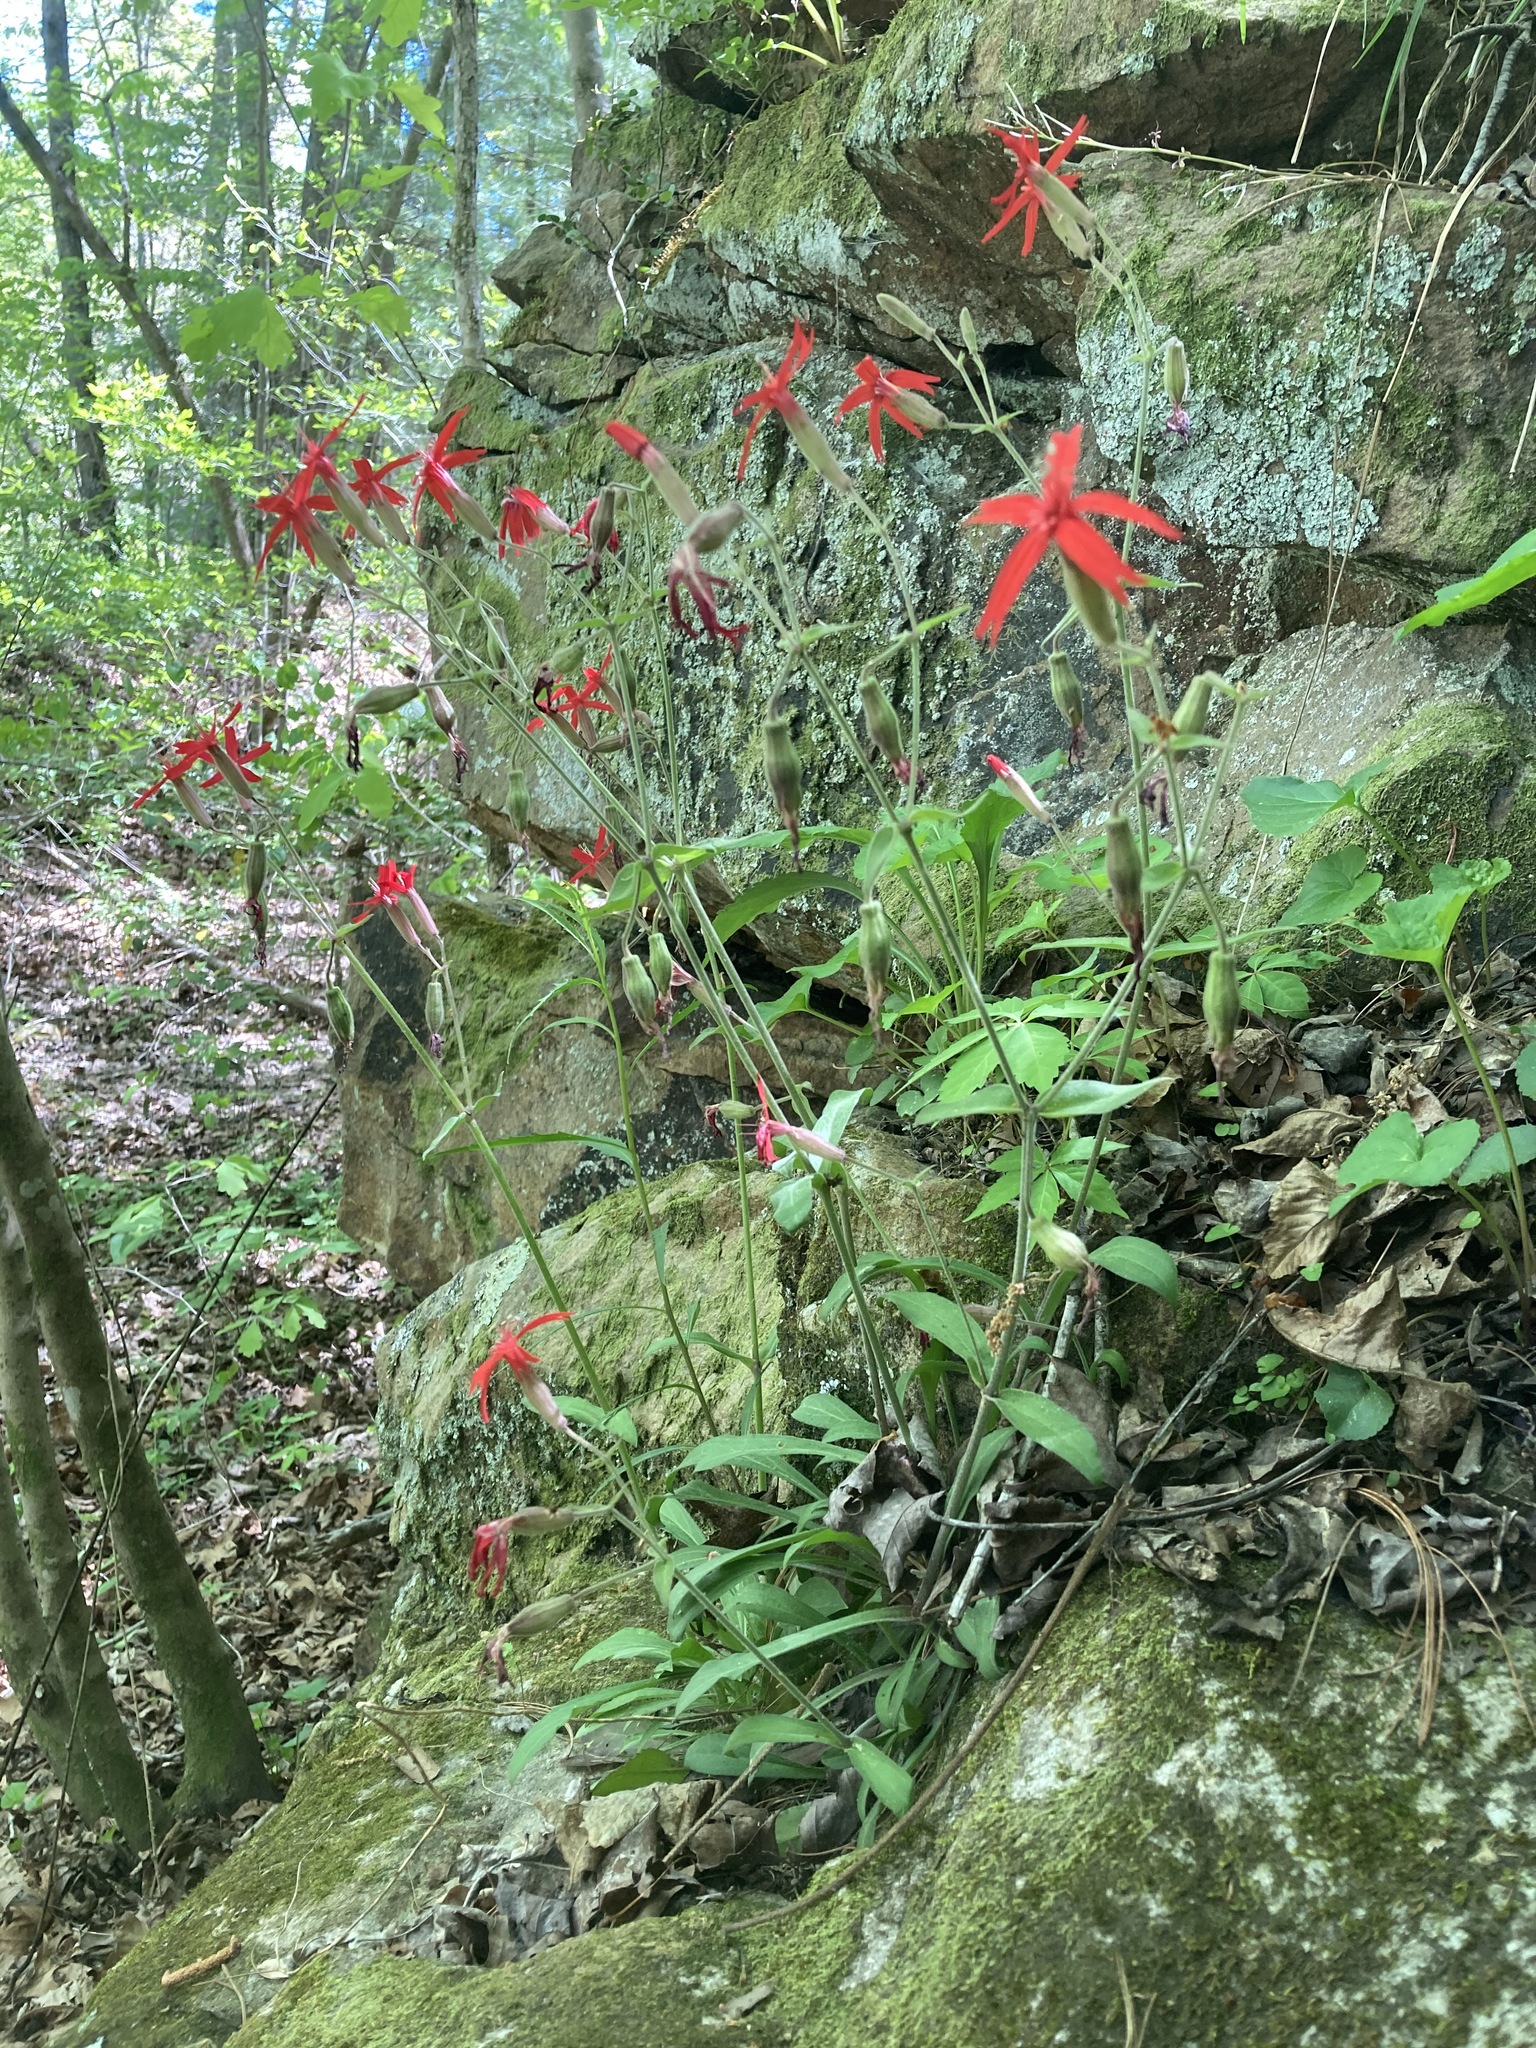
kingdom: Plantae
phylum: Tracheophyta
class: Magnoliopsida
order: Caryophyllales
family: Caryophyllaceae
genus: Silene
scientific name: Silene virginica
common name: Fire-pink
